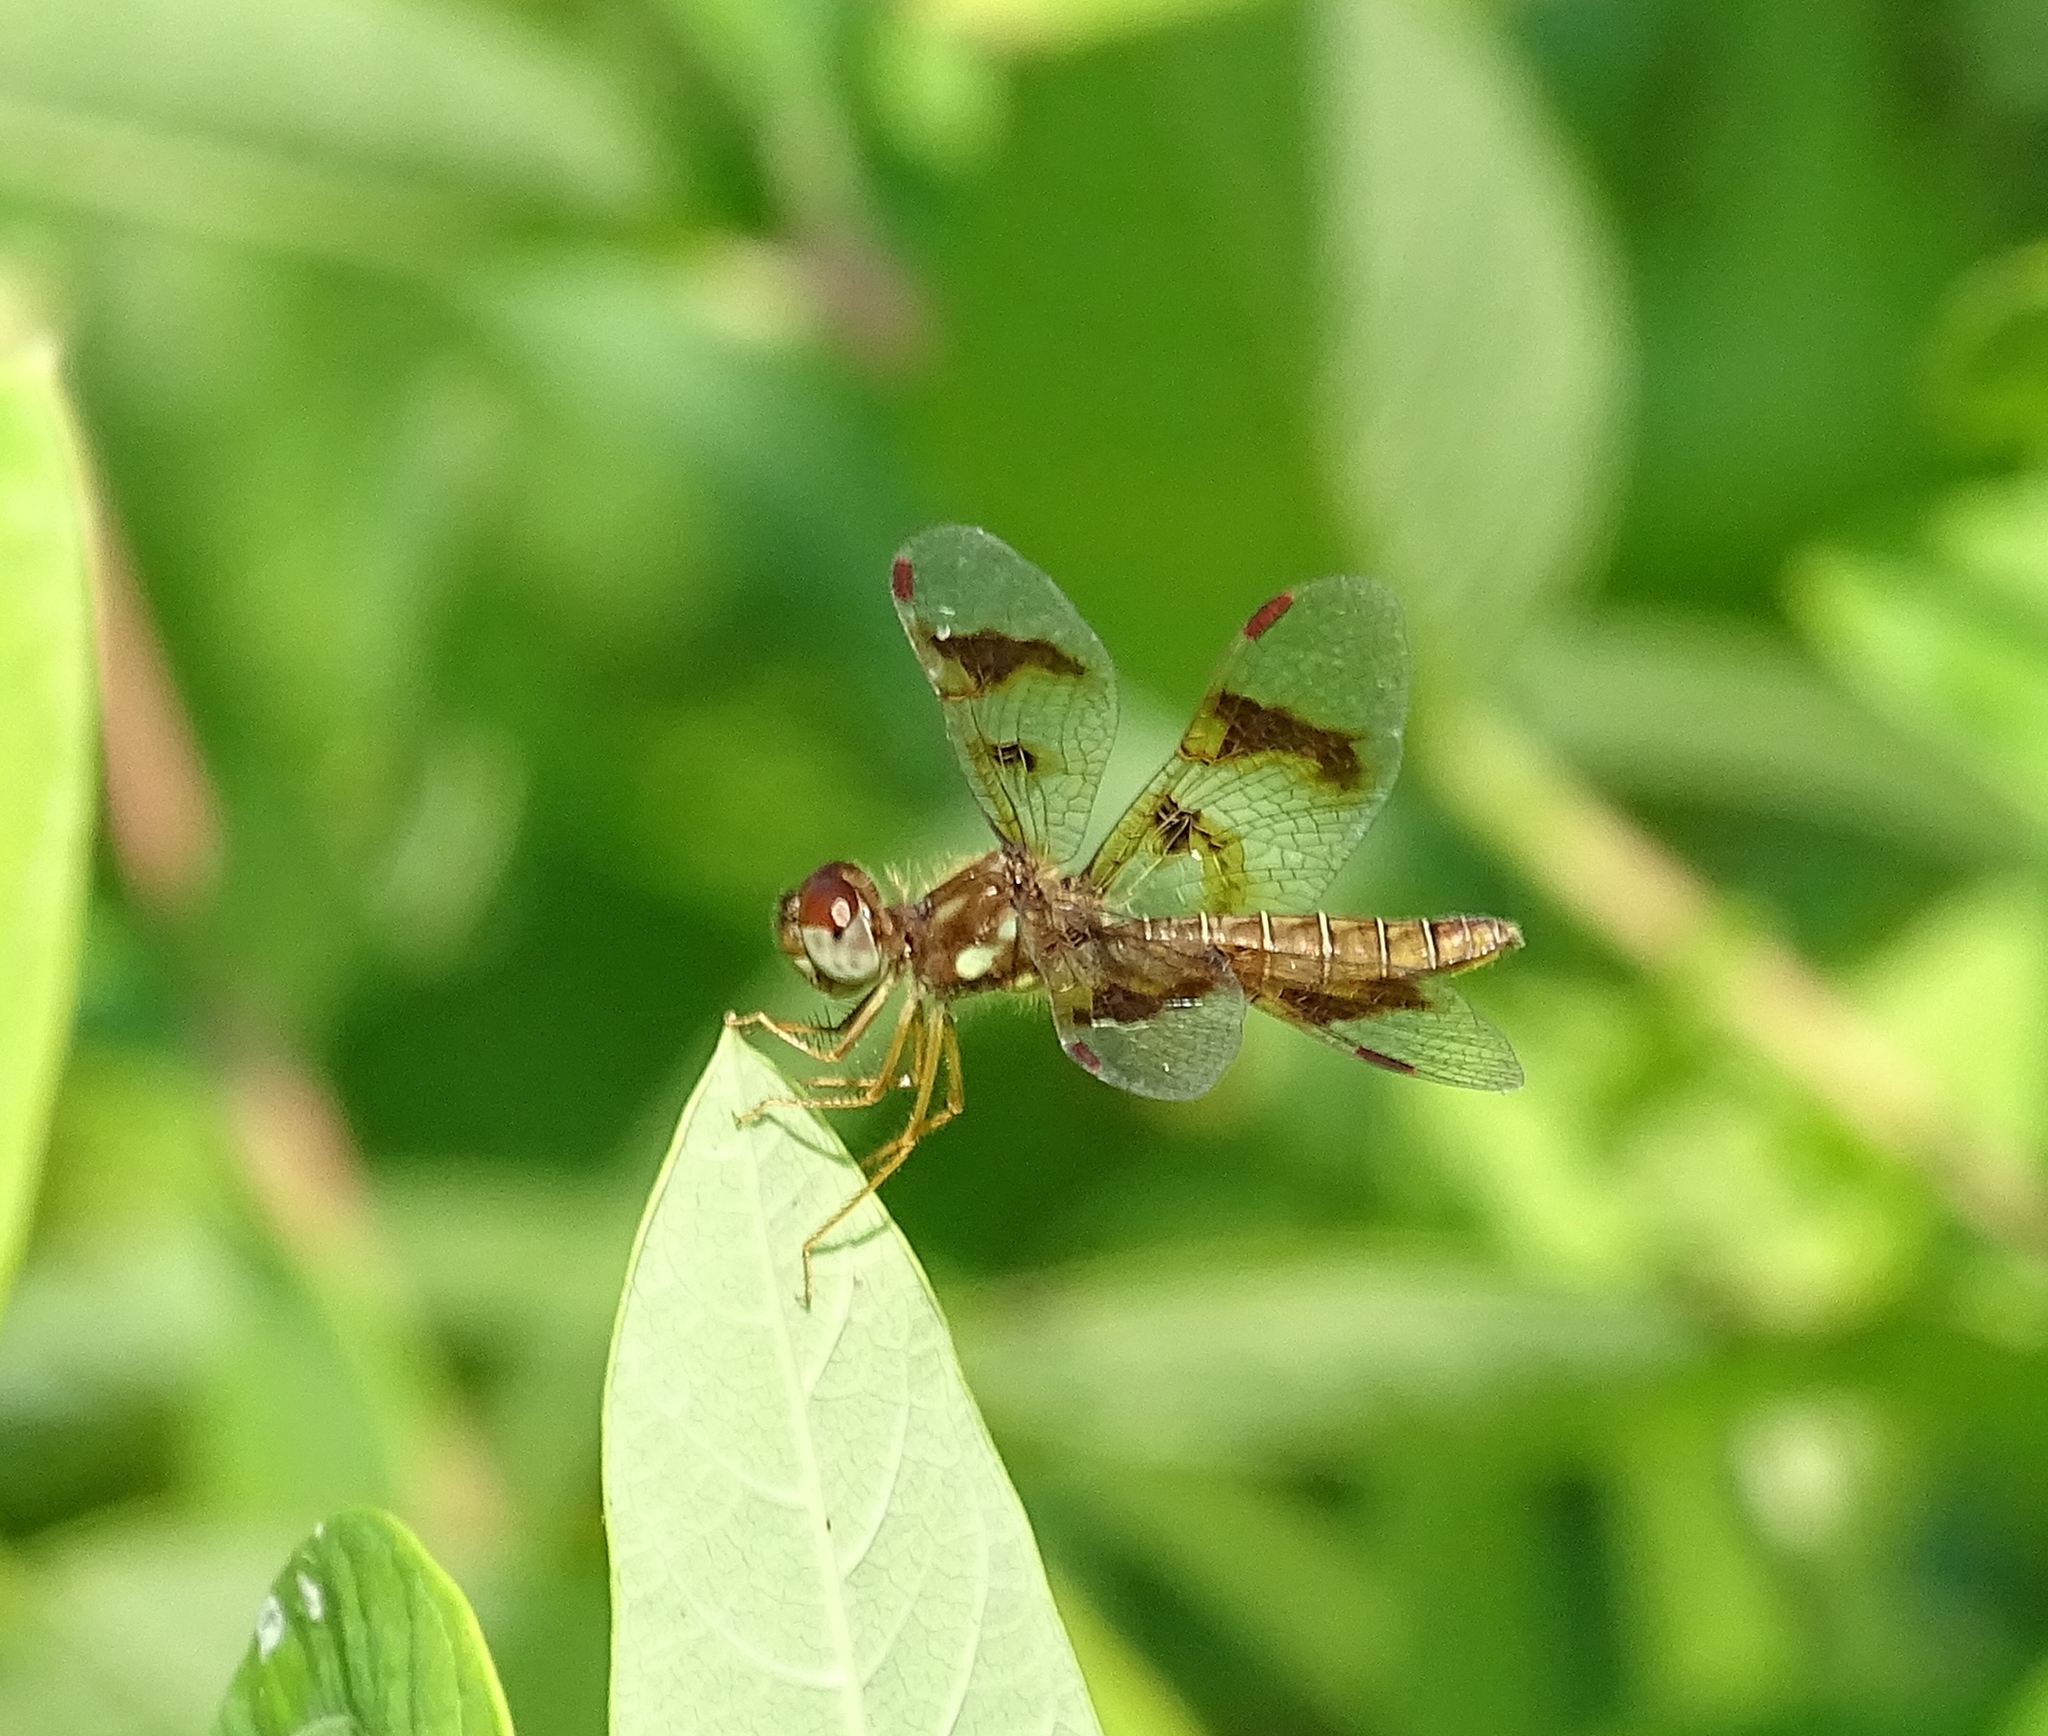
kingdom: Animalia
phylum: Arthropoda
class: Insecta
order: Odonata
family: Libellulidae
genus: Perithemis
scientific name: Perithemis tenera
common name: Eastern amberwing
